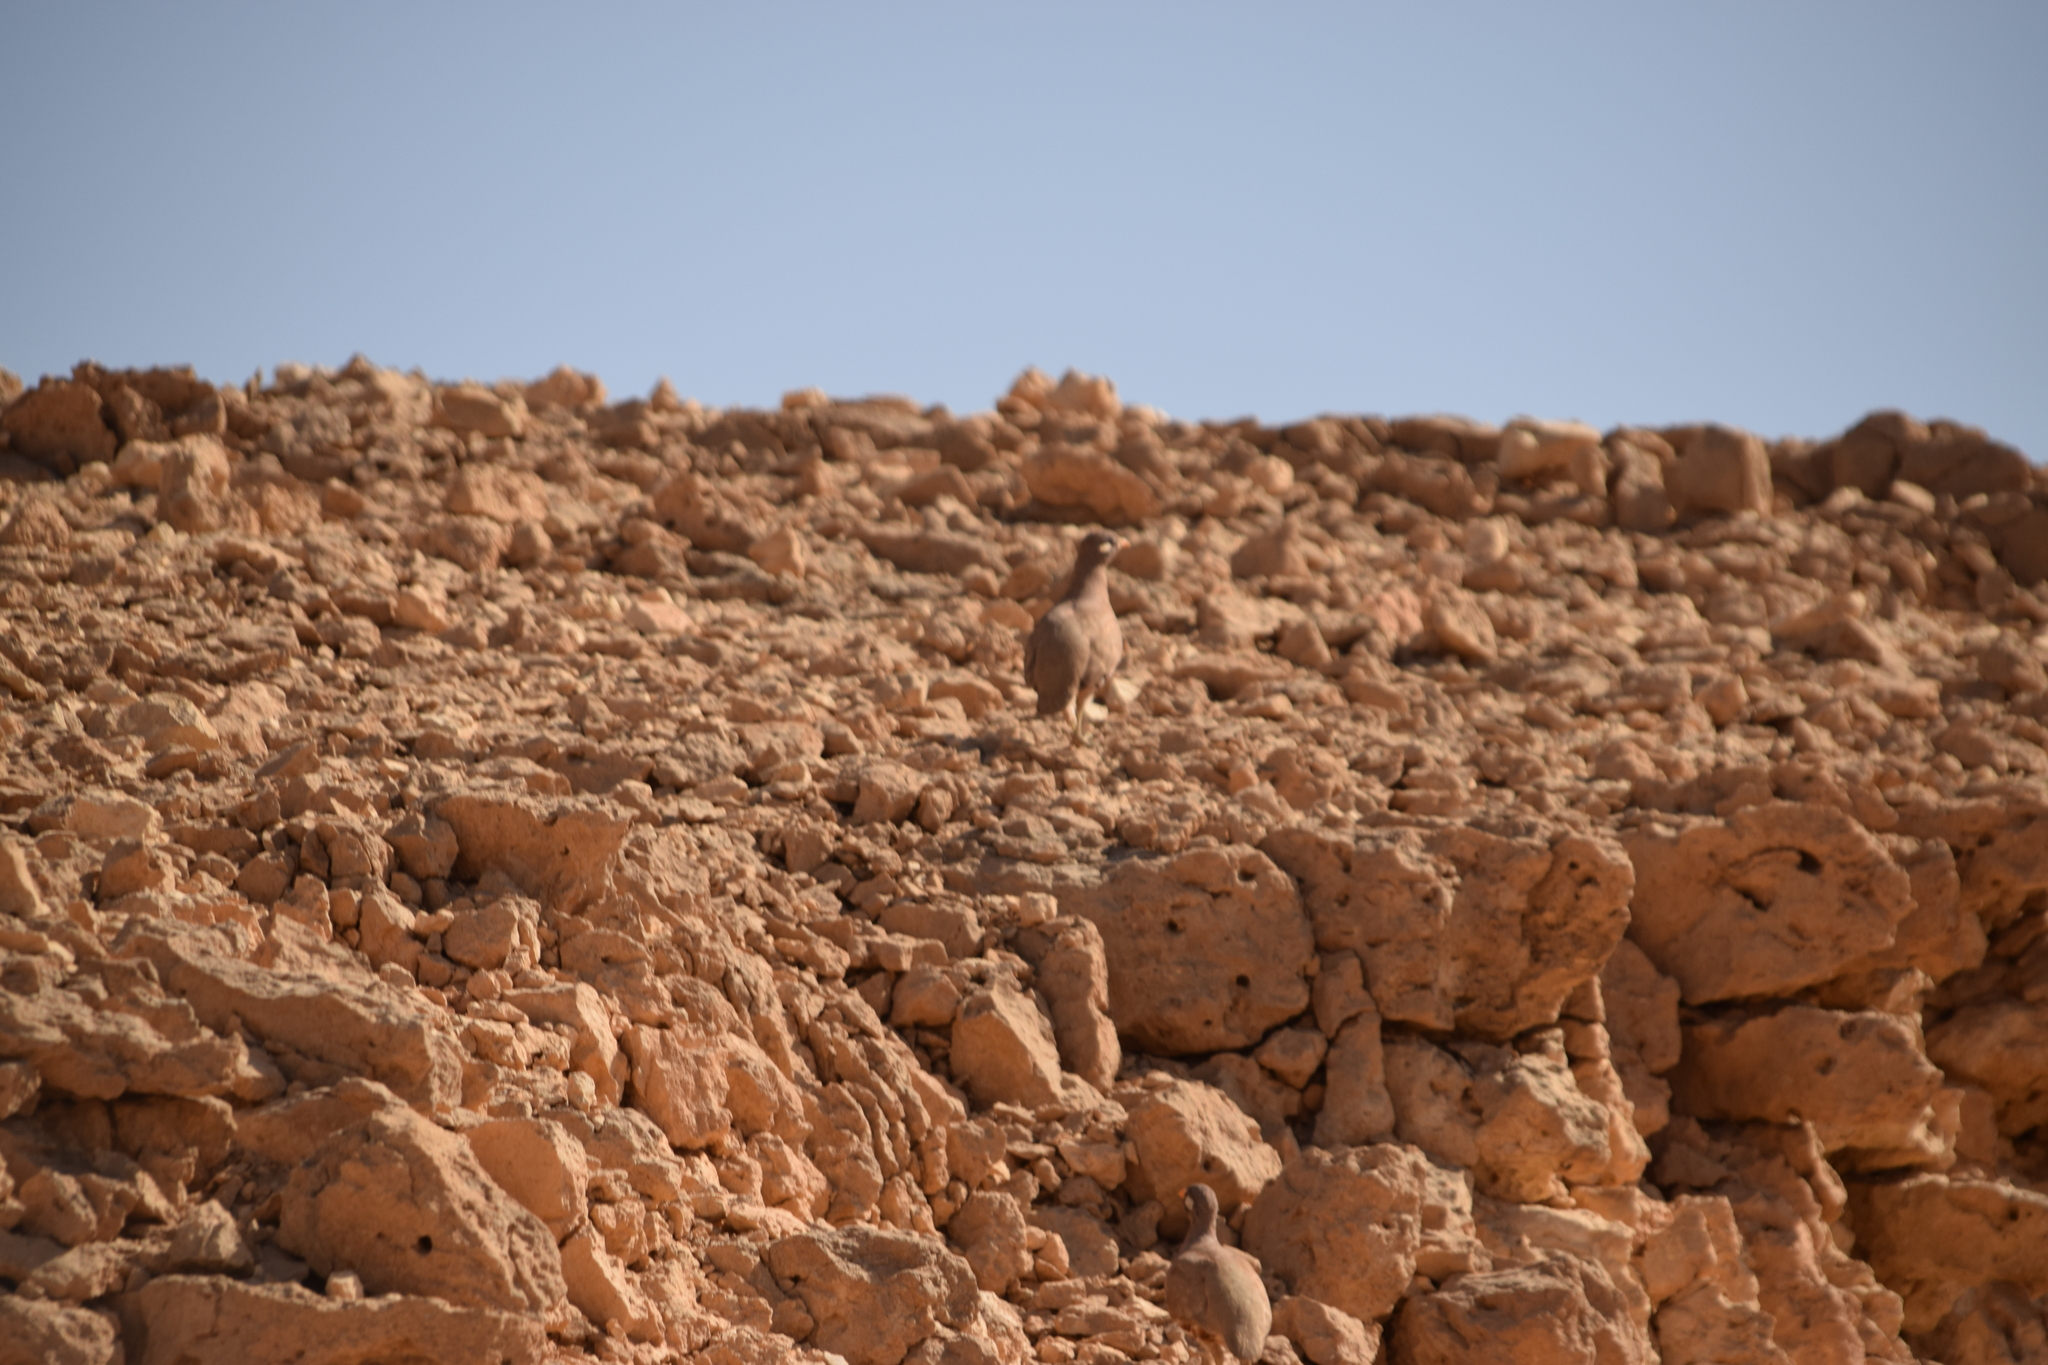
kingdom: Animalia
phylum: Chordata
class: Aves
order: Galliformes
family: Phasianidae
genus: Ammoperdix
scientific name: Ammoperdix heyi
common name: Sand partridge
